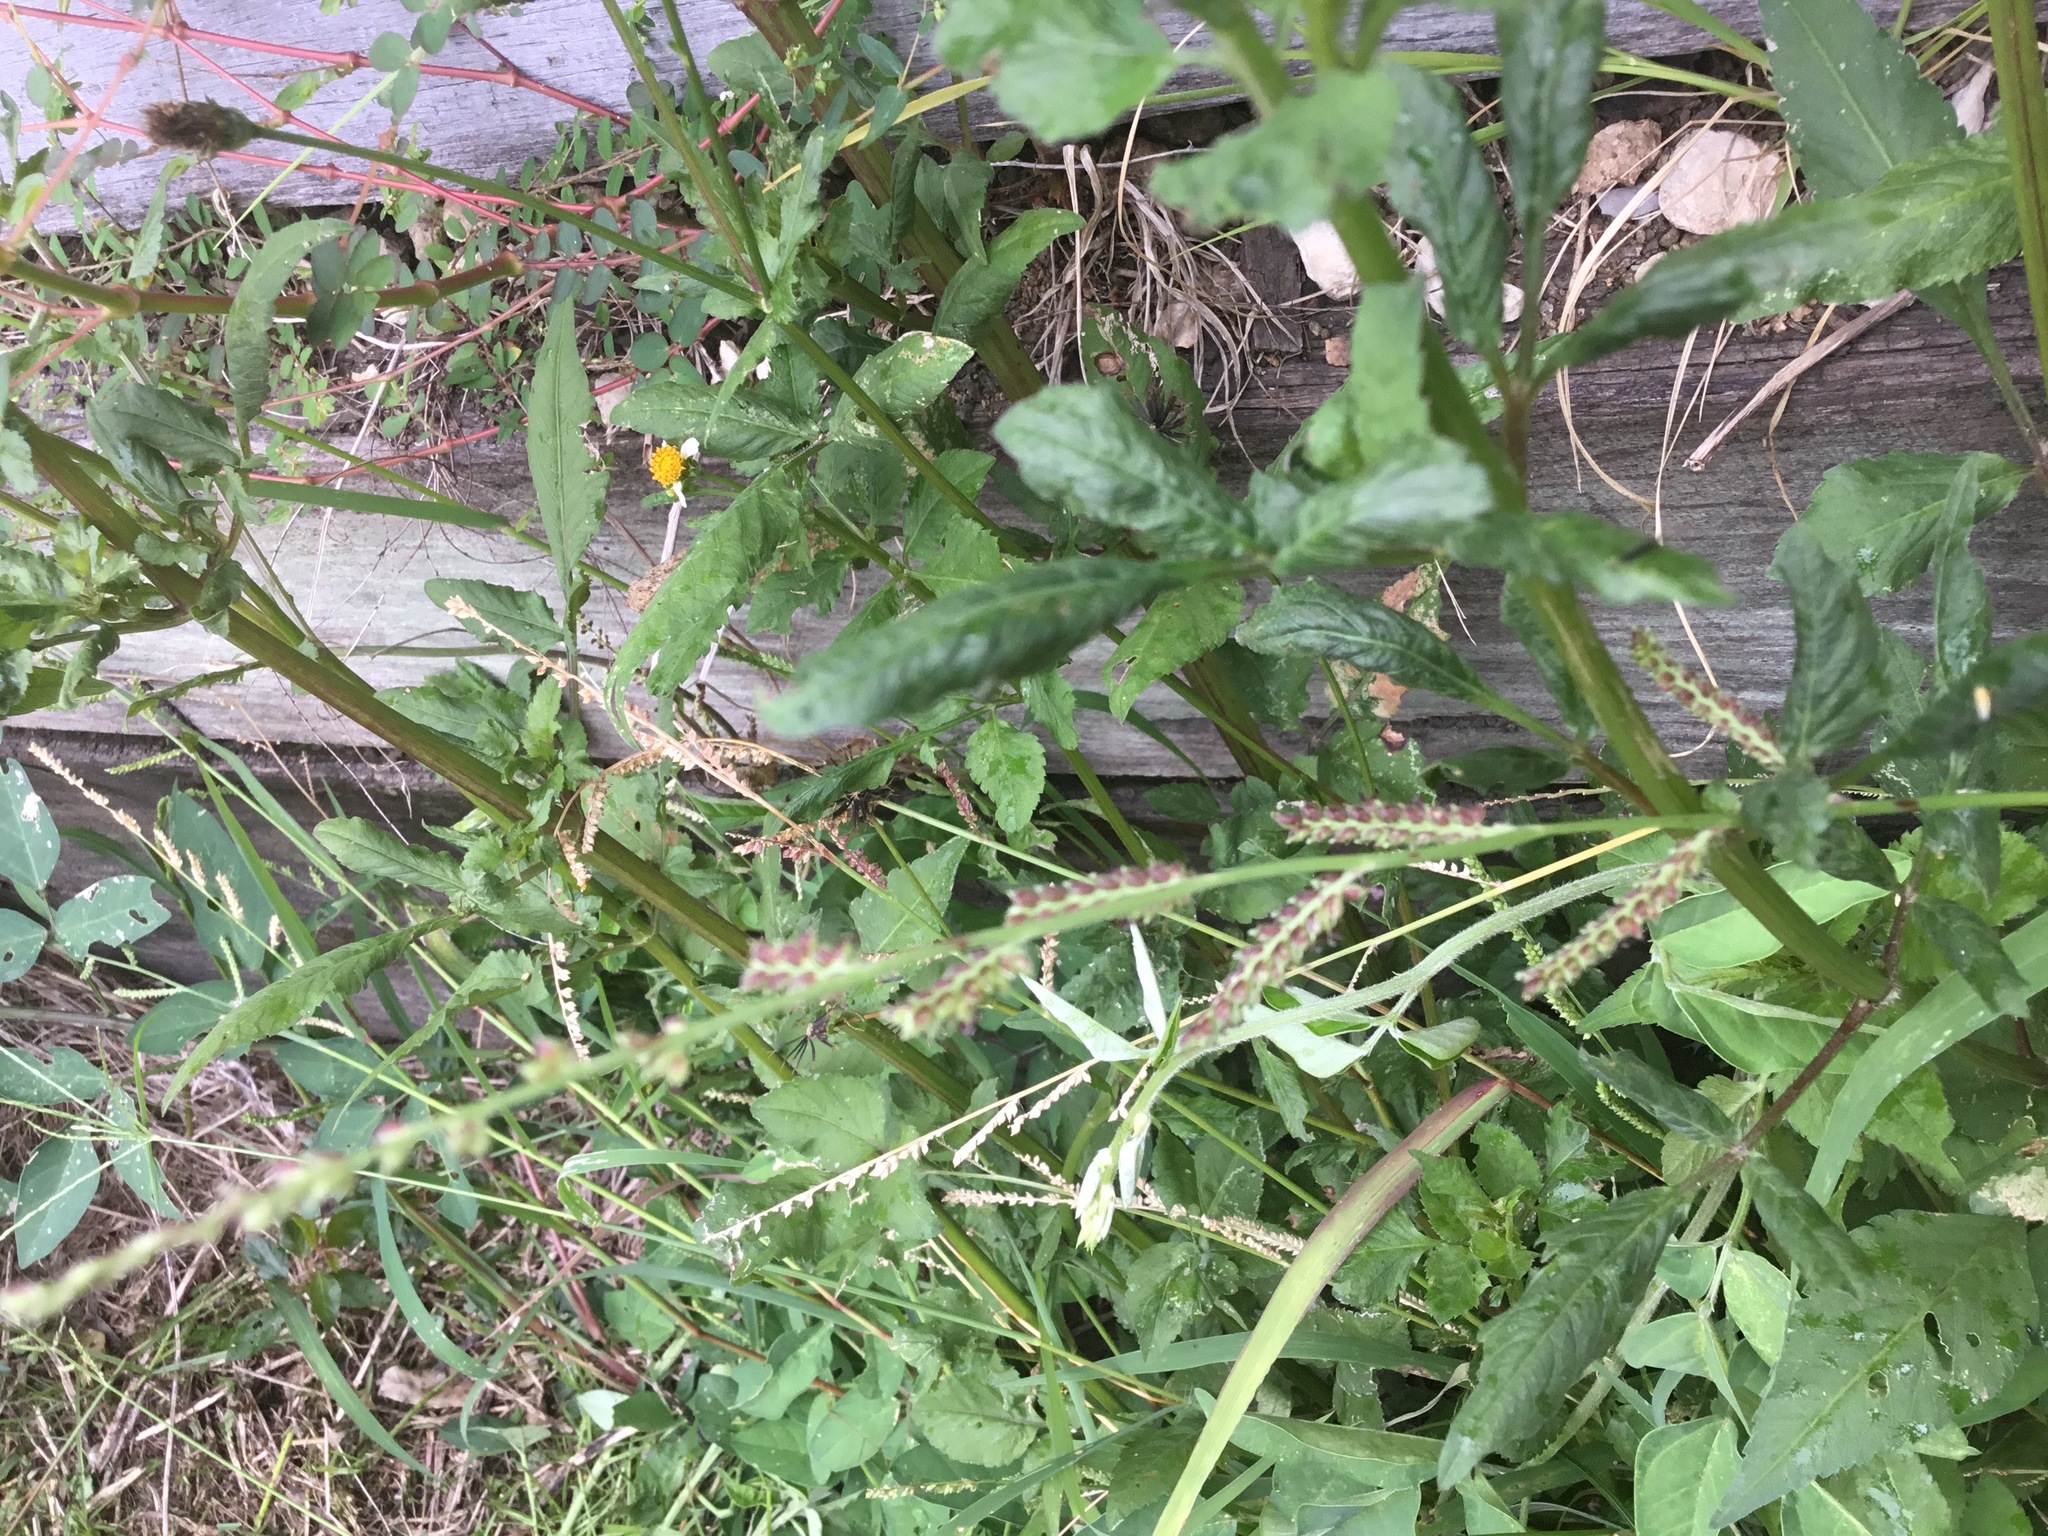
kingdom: Plantae
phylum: Tracheophyta
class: Liliopsida
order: Poales
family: Poaceae
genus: Echinochloa
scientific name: Echinochloa colonum
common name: Jungle rice
